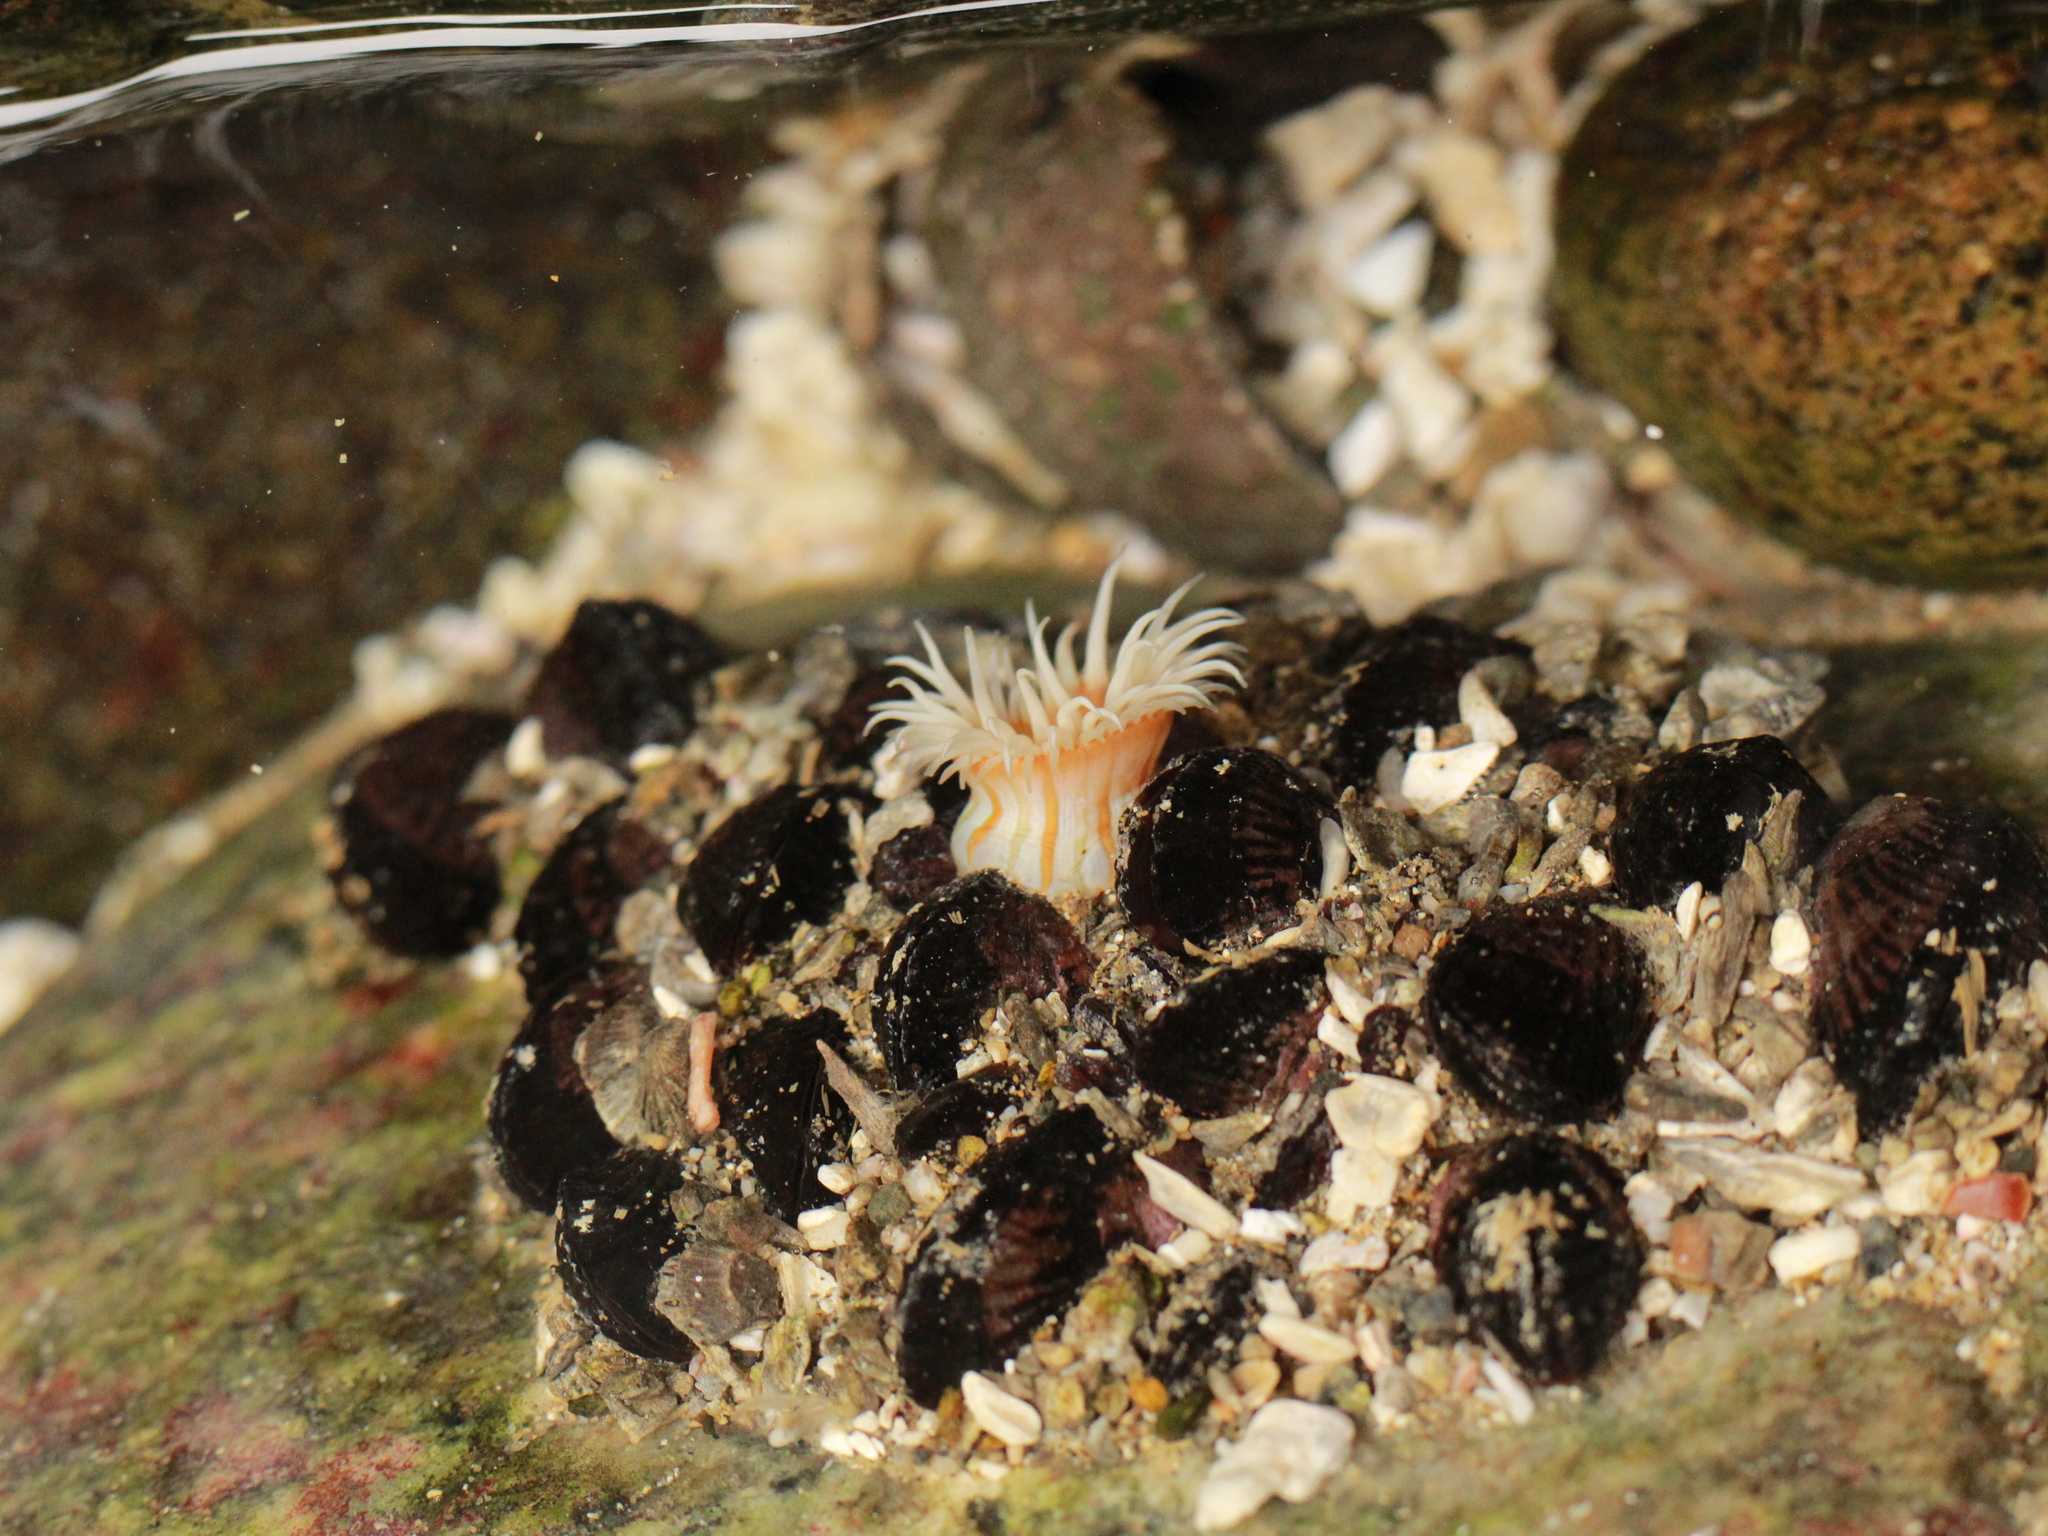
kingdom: Animalia
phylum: Cnidaria
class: Anthozoa
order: Actiniaria
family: Sagartiidae
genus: Anthothoe
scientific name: Anthothoe chilensis
